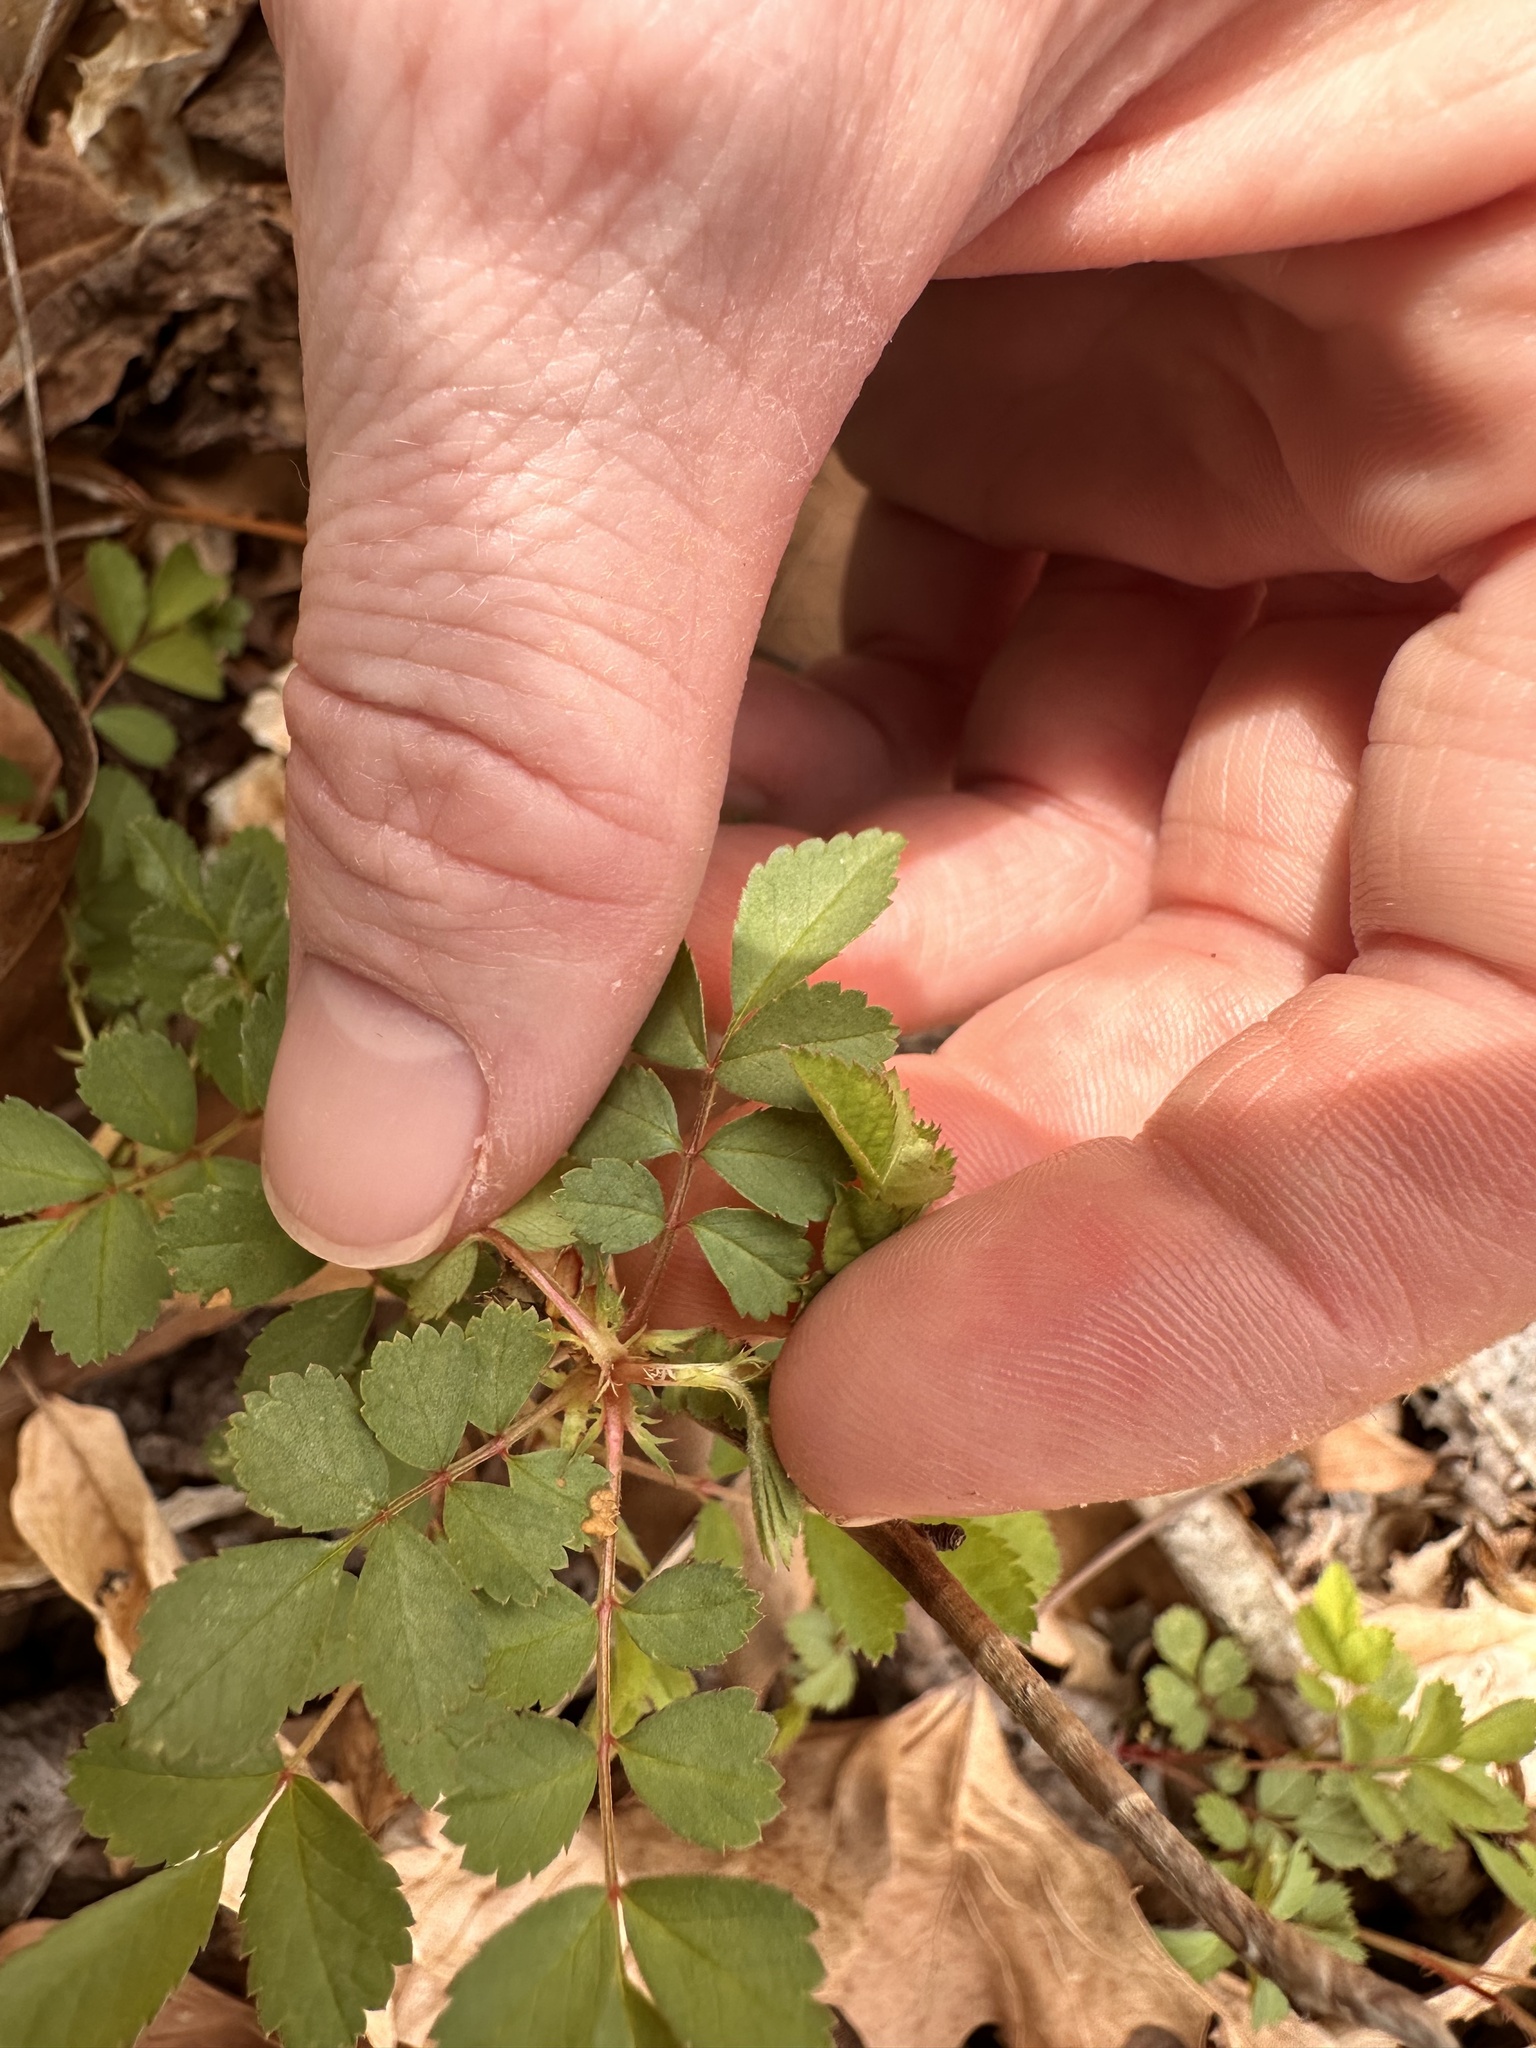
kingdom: Plantae
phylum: Tracheophyta
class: Magnoliopsida
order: Rosales
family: Rosaceae
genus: Rosa
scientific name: Rosa multiflora
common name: Multiflora rose
